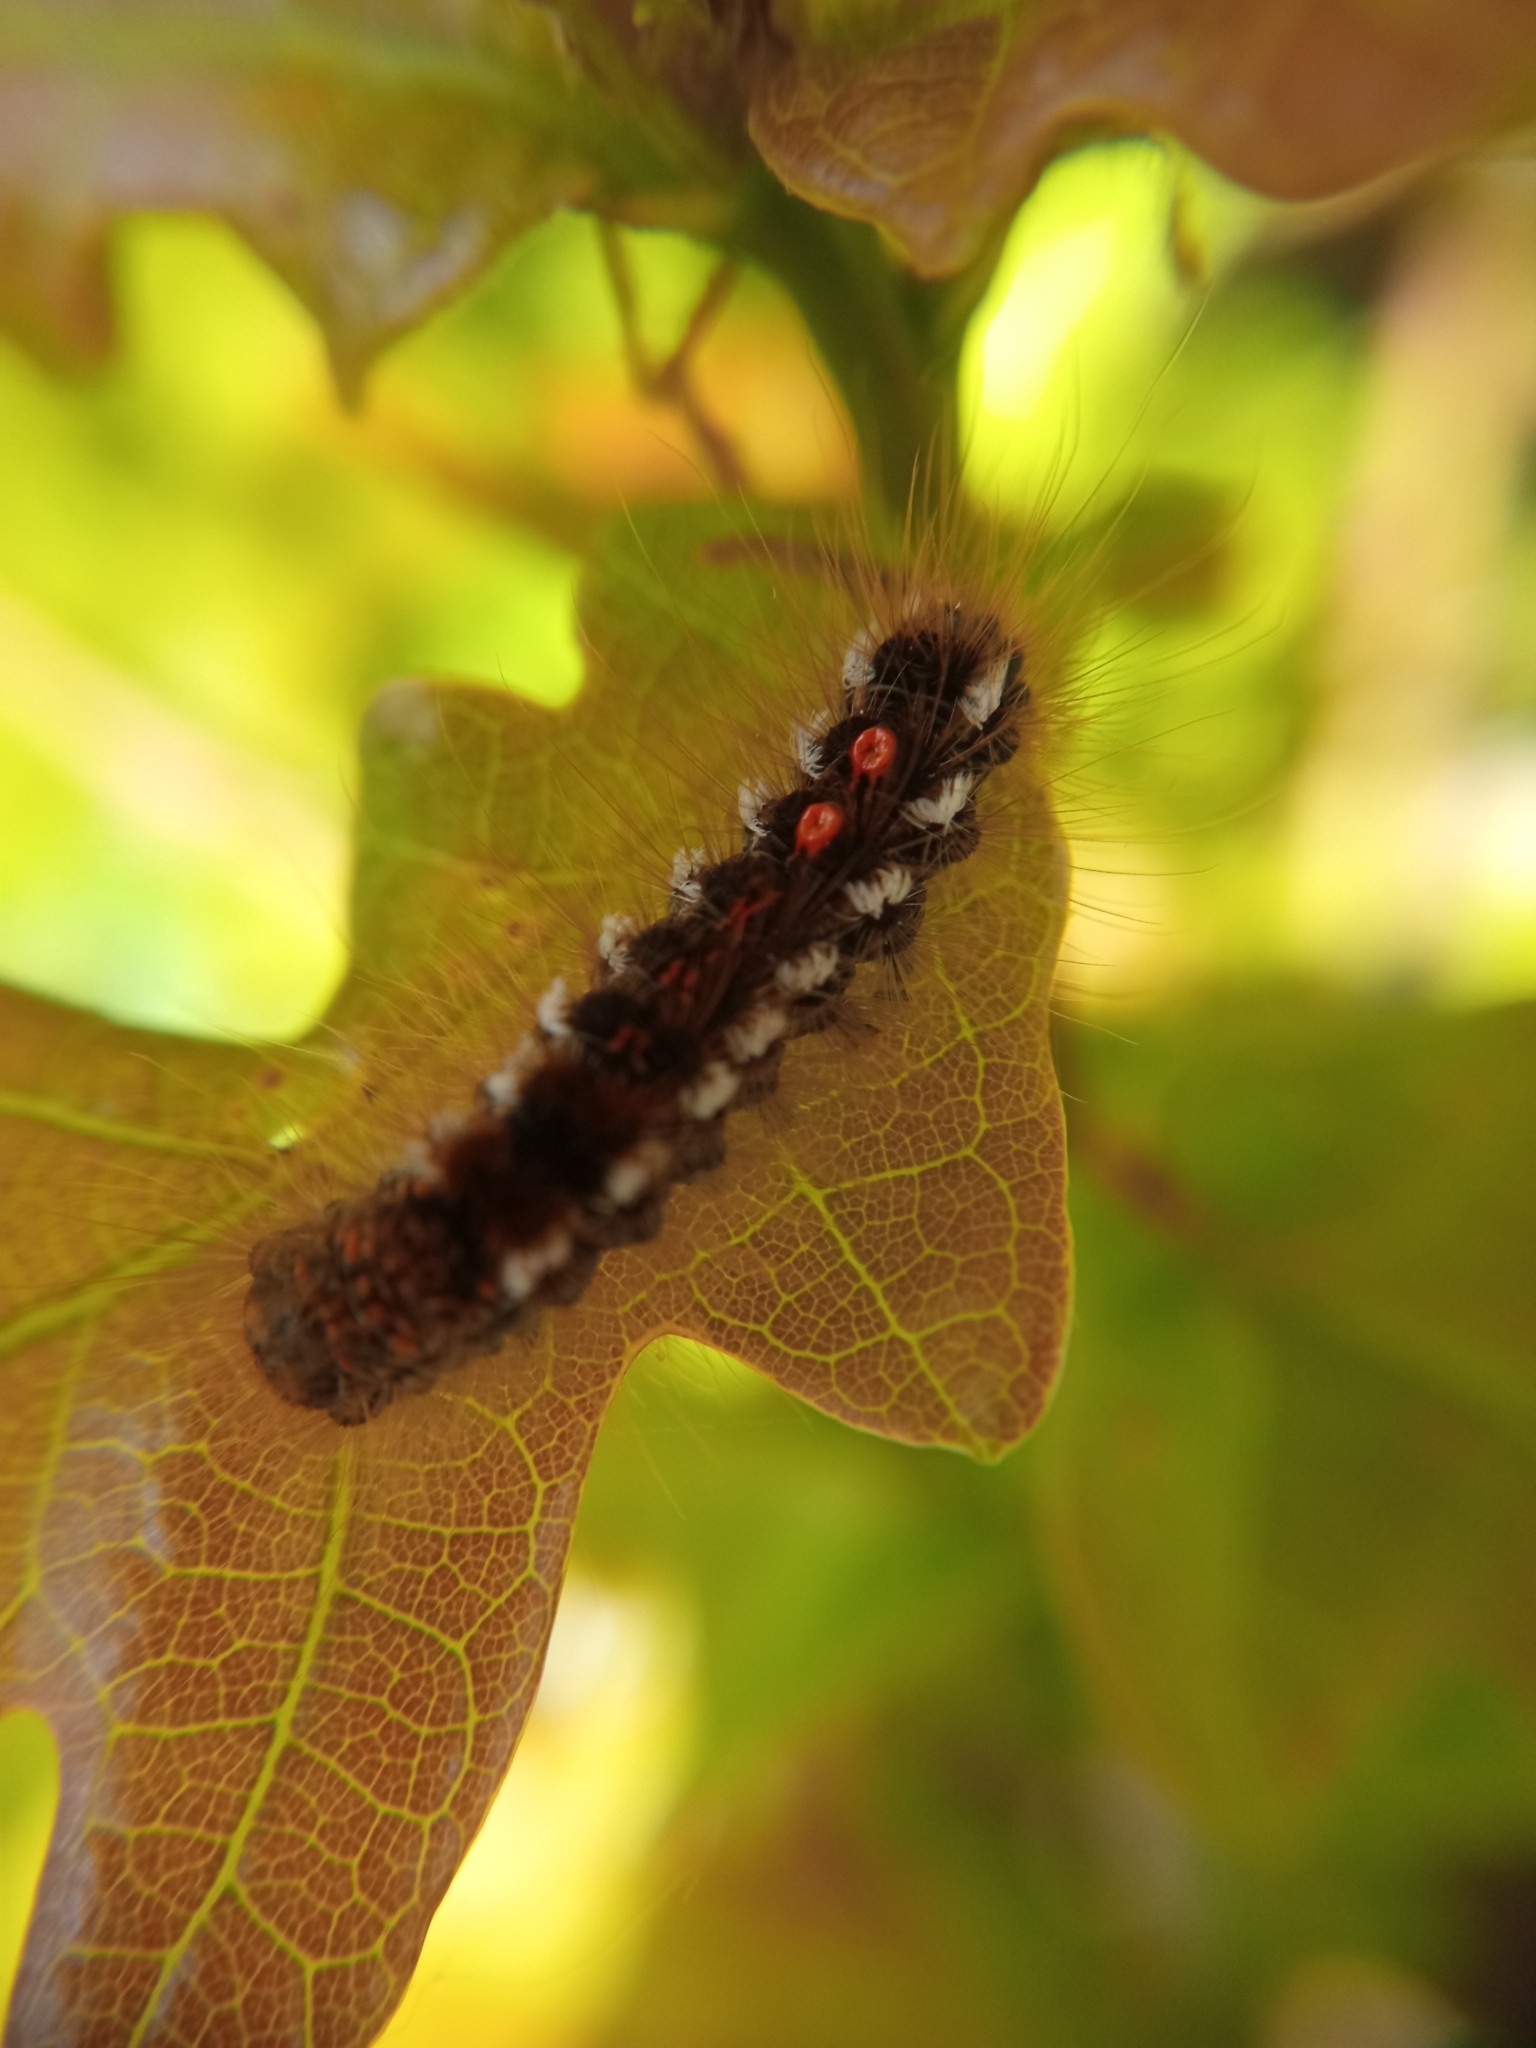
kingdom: Animalia
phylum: Arthropoda
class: Insecta
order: Lepidoptera
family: Erebidae
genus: Euproctis
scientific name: Euproctis chrysorrhoea
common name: Brown-tail
